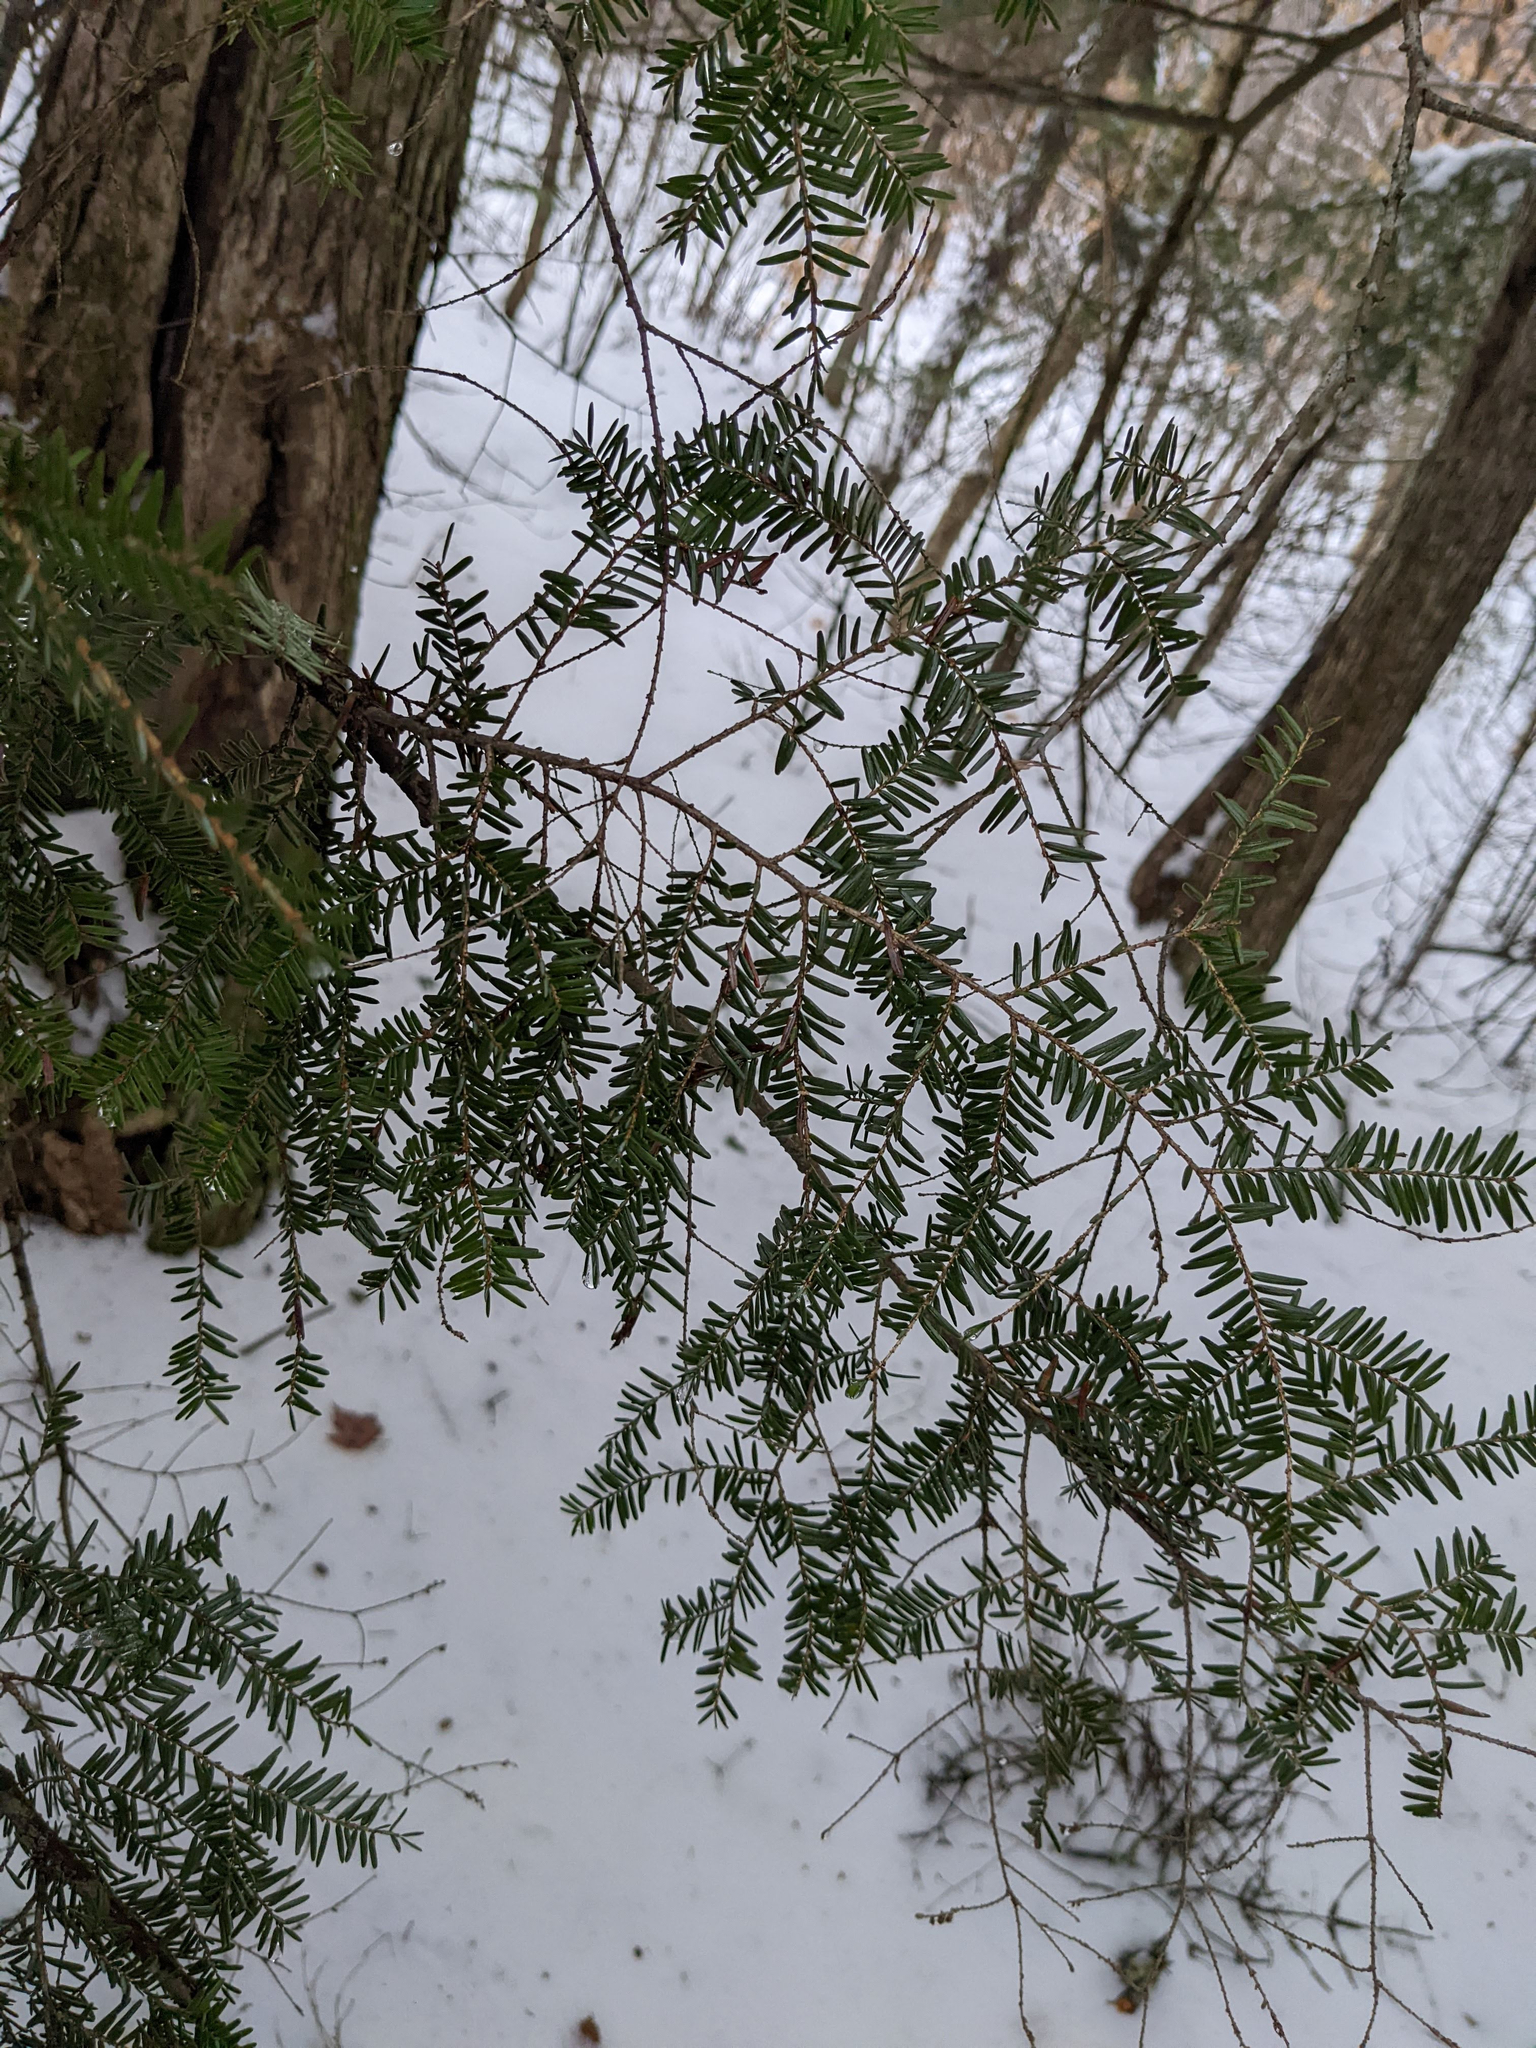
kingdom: Plantae
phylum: Tracheophyta
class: Pinopsida
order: Pinales
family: Pinaceae
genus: Tsuga
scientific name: Tsuga canadensis
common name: Eastern hemlock
